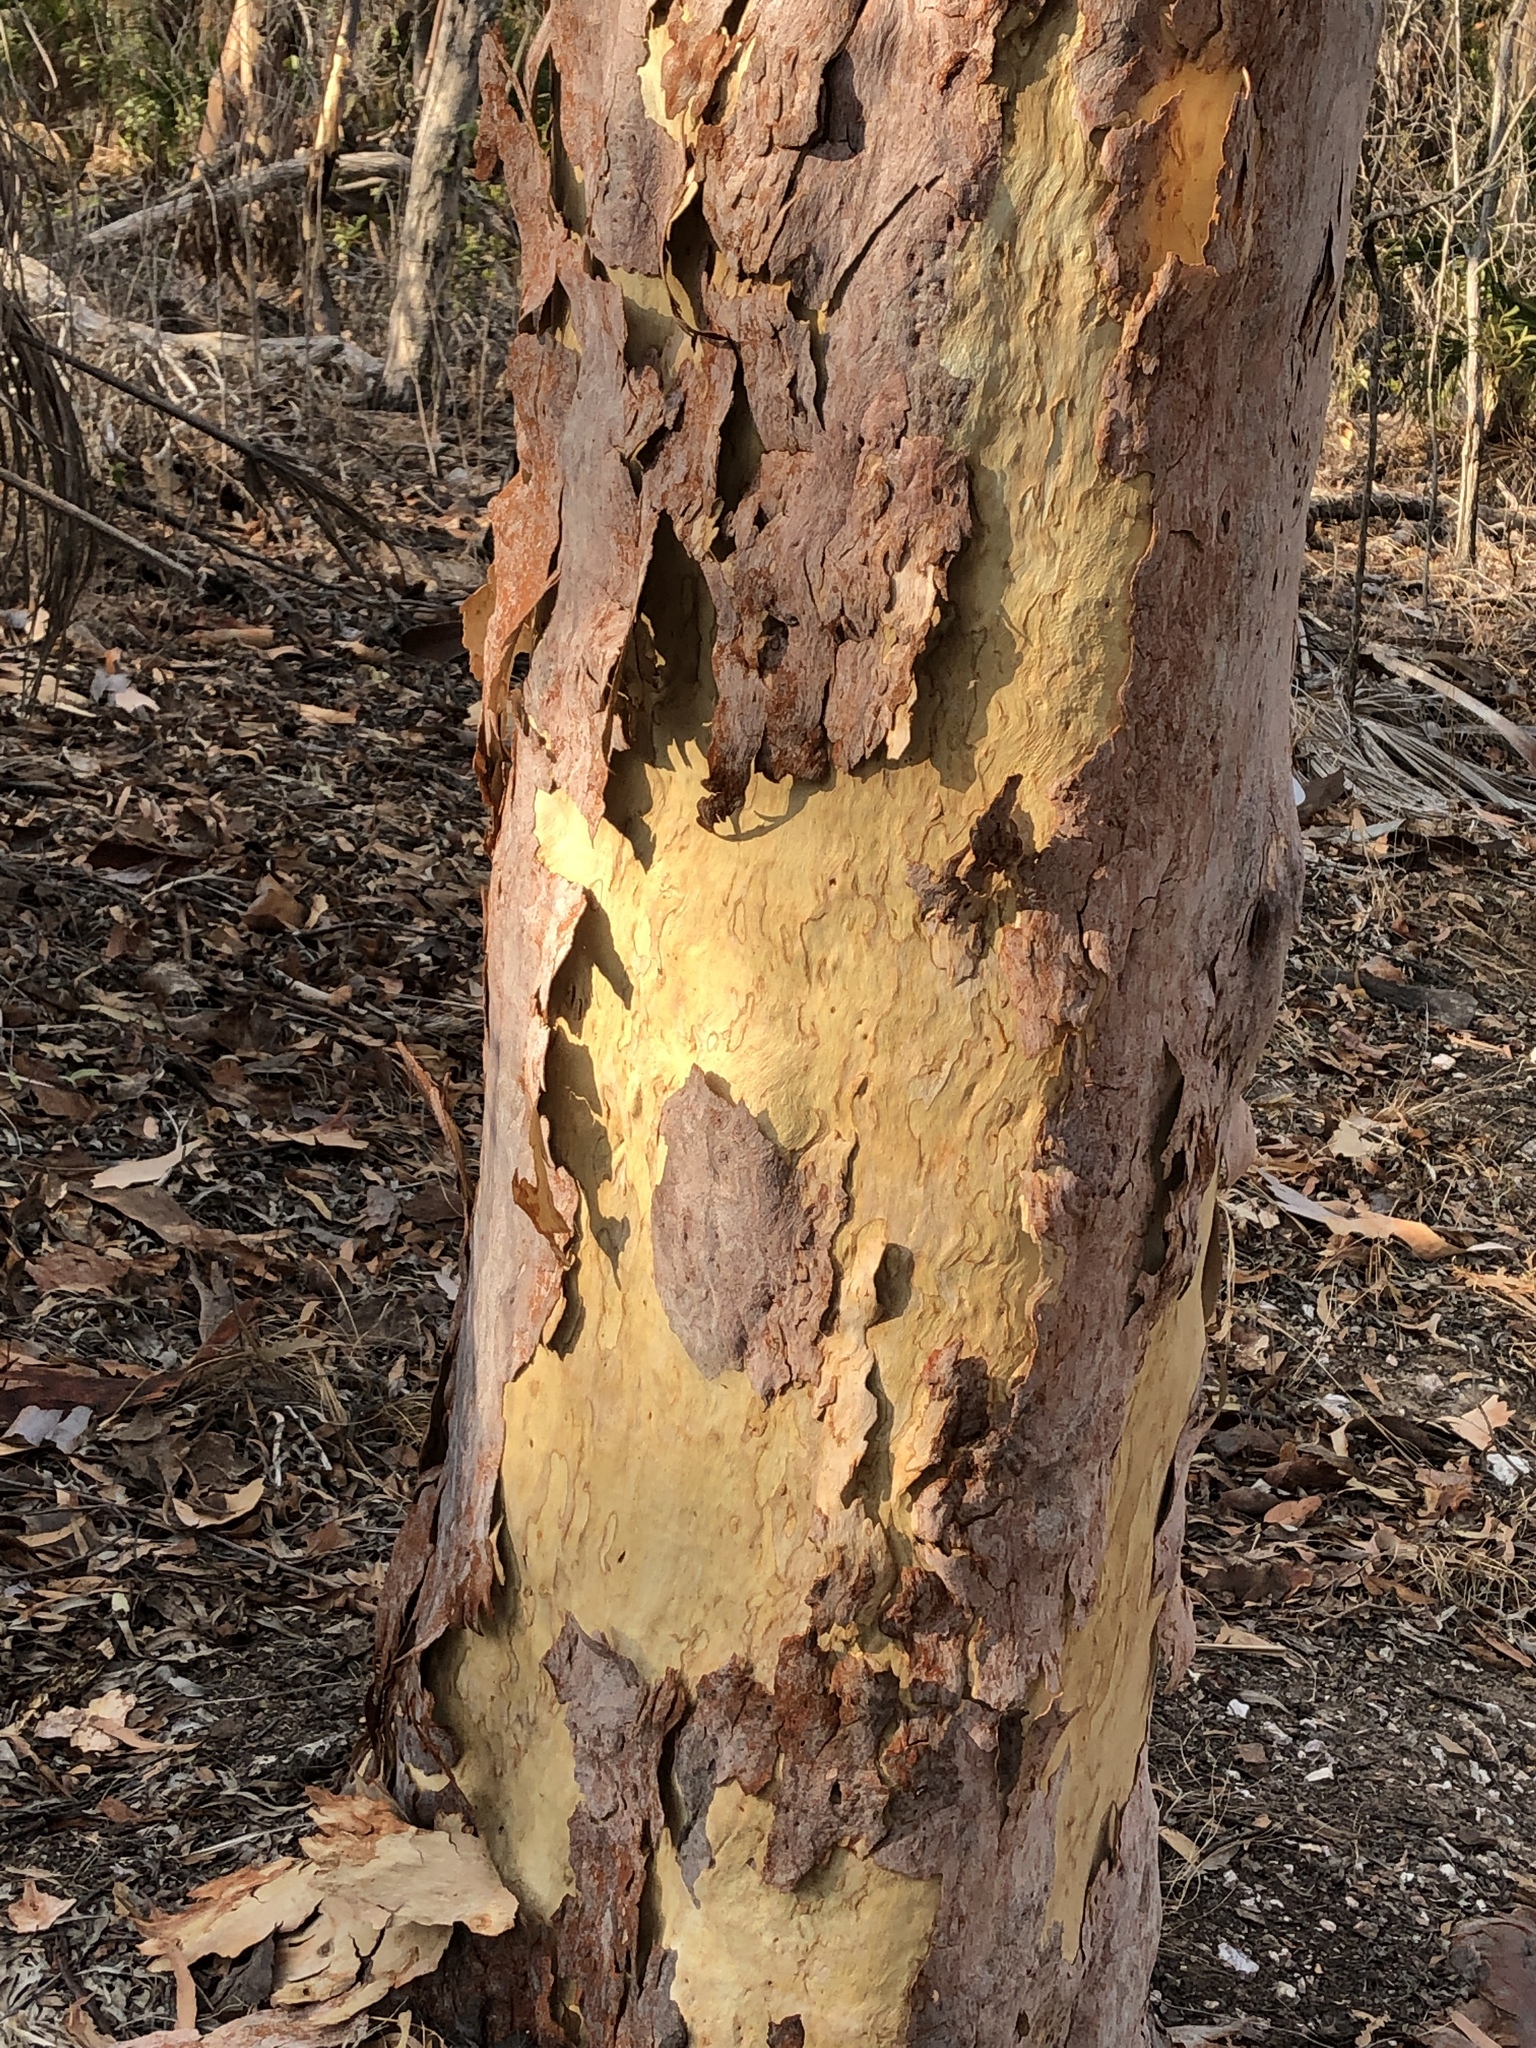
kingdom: Plantae
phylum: Tracheophyta
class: Magnoliopsida
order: Myrtales
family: Myrtaceae
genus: Corymbia
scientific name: Corymbia citriodora
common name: Lemonscented gum
